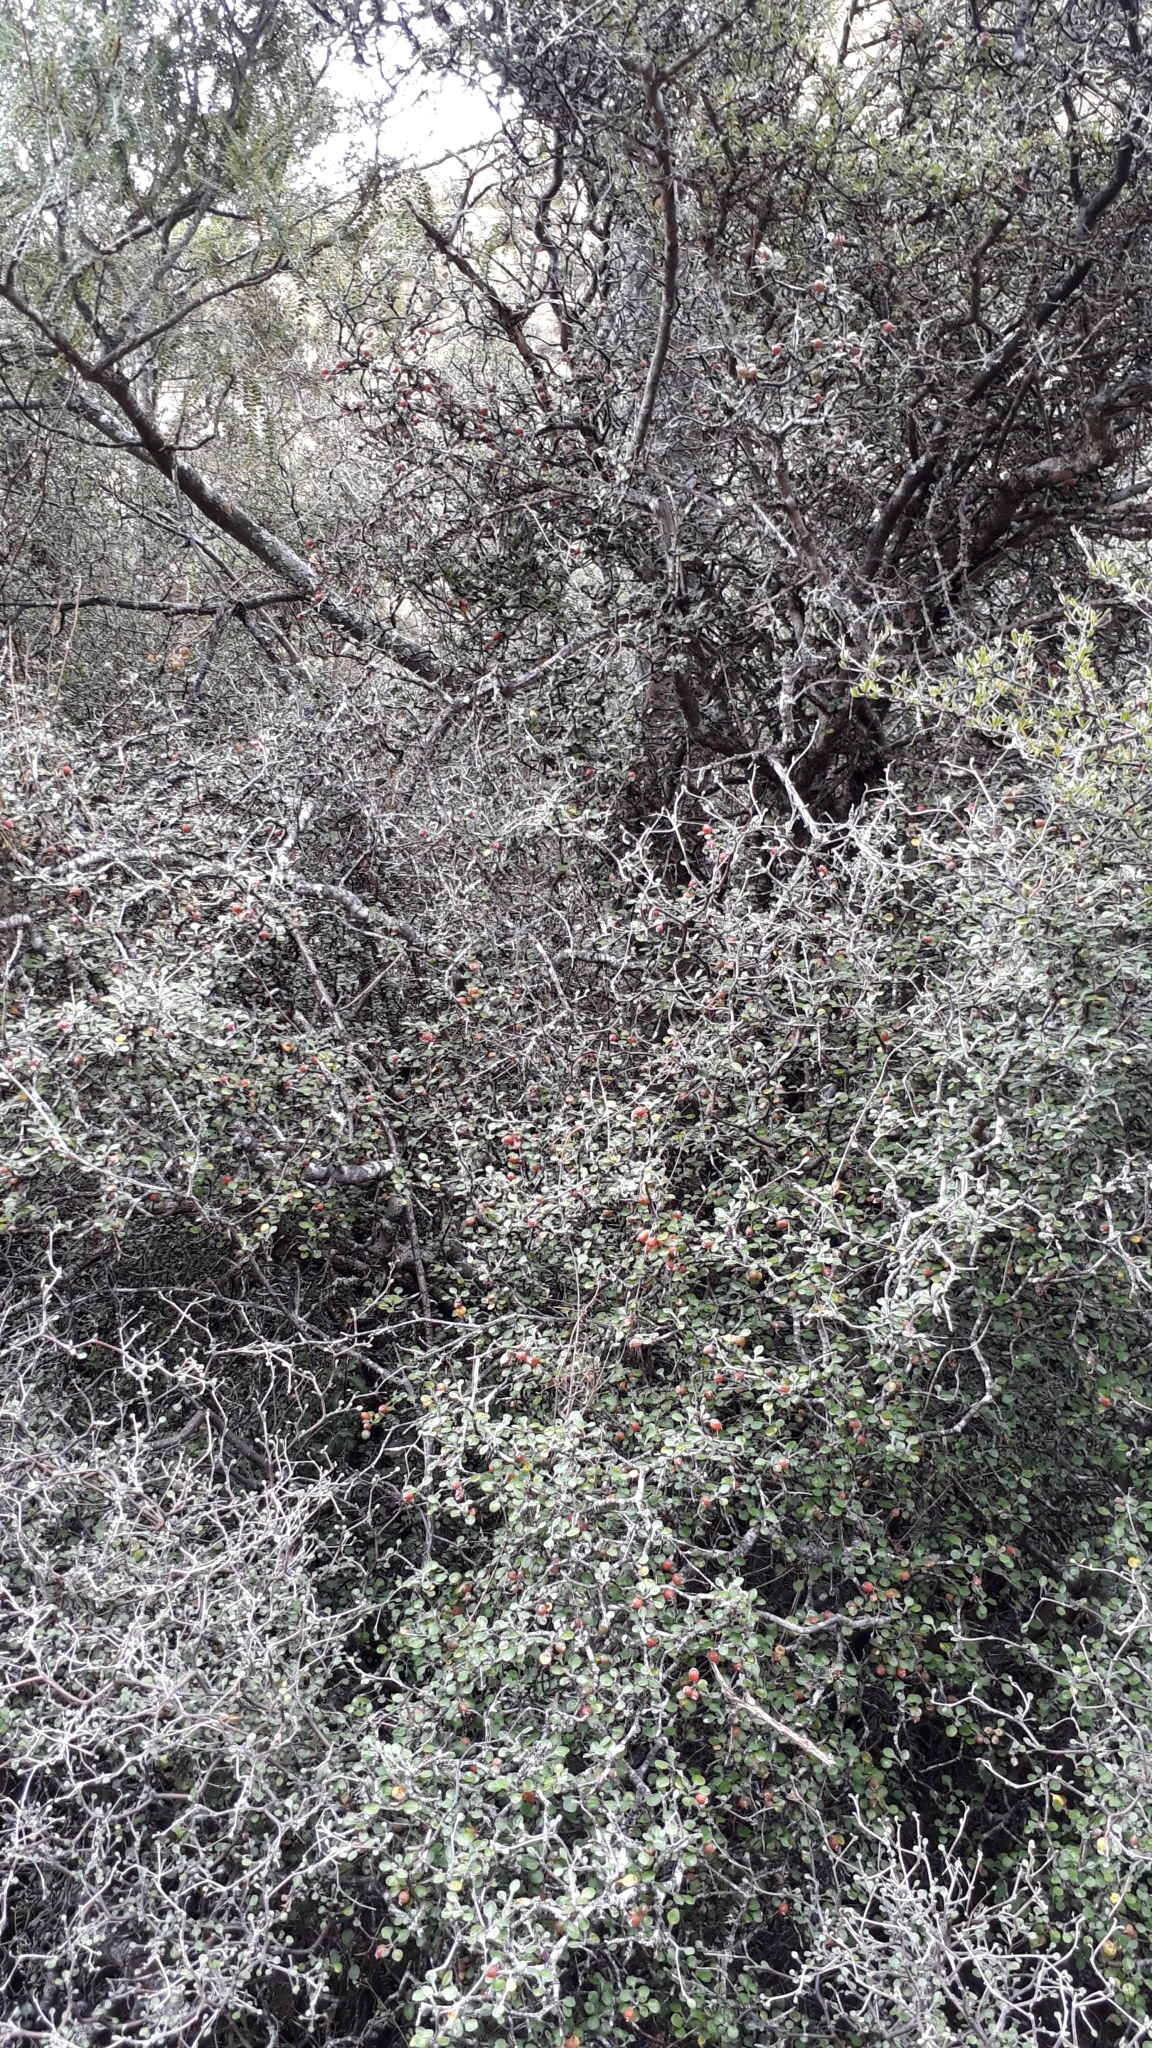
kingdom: Plantae
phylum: Tracheophyta
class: Magnoliopsida
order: Asterales
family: Argophyllaceae
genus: Corokia
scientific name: Corokia cotoneaster
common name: Wire nettingbush
